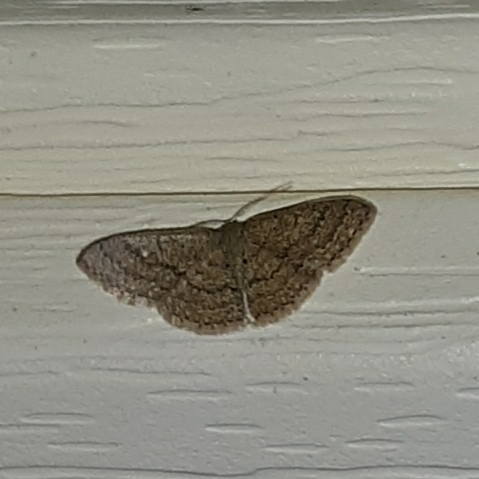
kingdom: Animalia
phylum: Arthropoda
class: Insecta
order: Lepidoptera
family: Geometridae
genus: Pleuroprucha
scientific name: Pleuroprucha insulsaria
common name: Common tan wave
